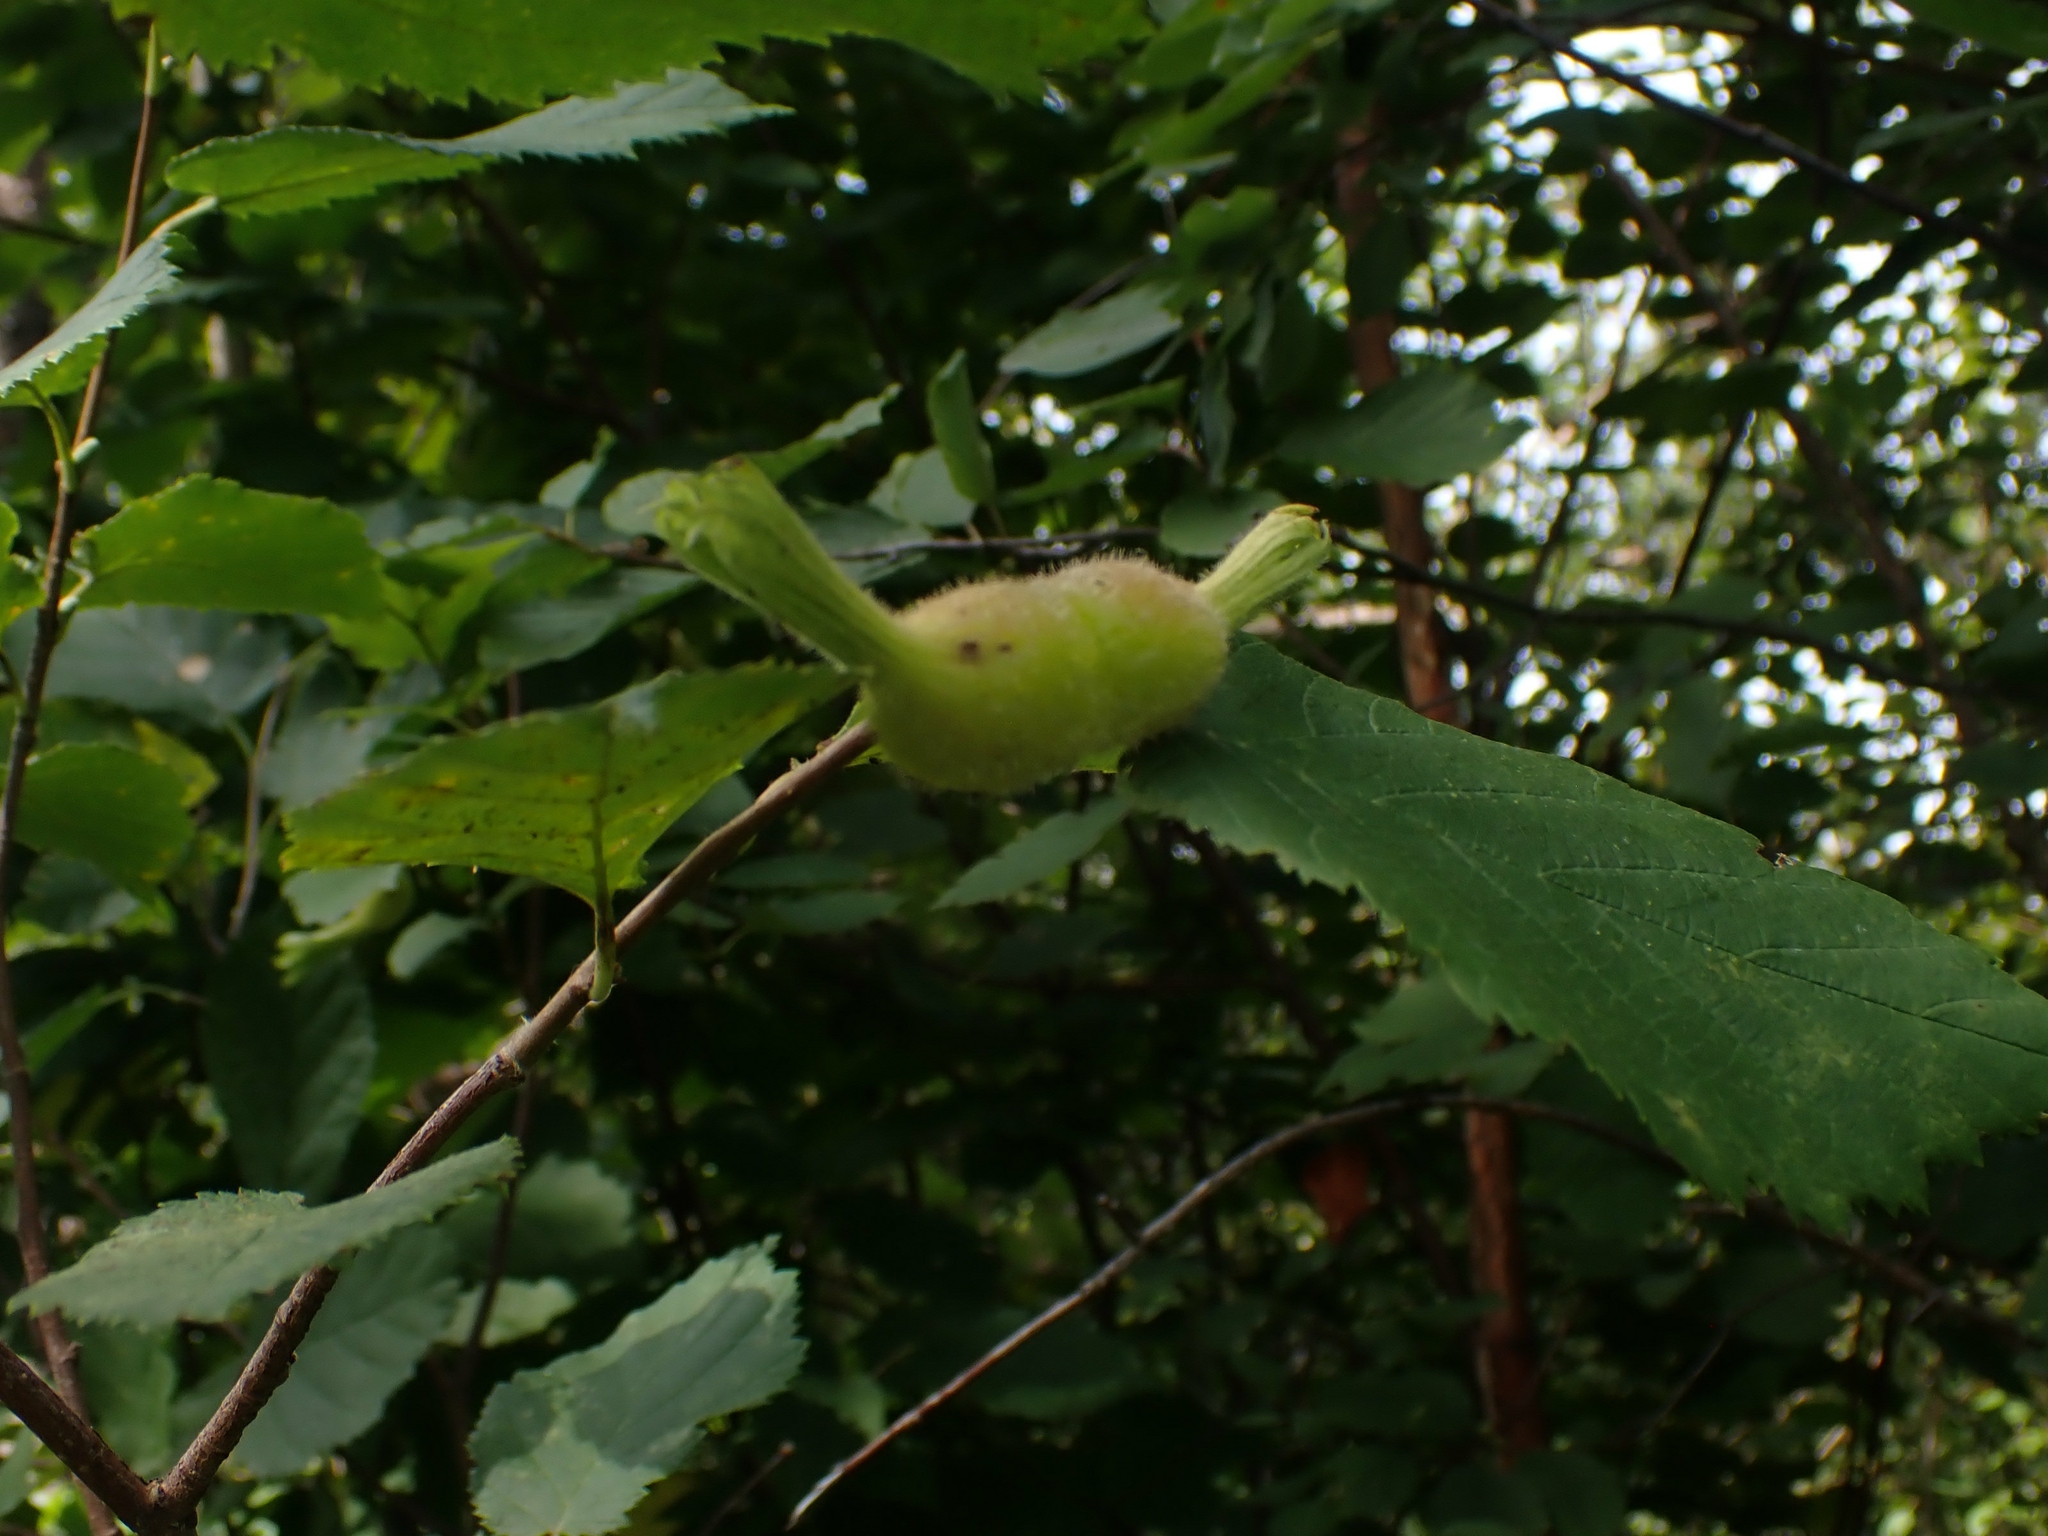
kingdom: Plantae
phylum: Tracheophyta
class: Magnoliopsida
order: Fagales
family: Betulaceae
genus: Corylus
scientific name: Corylus cornuta
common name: Beaked hazel
